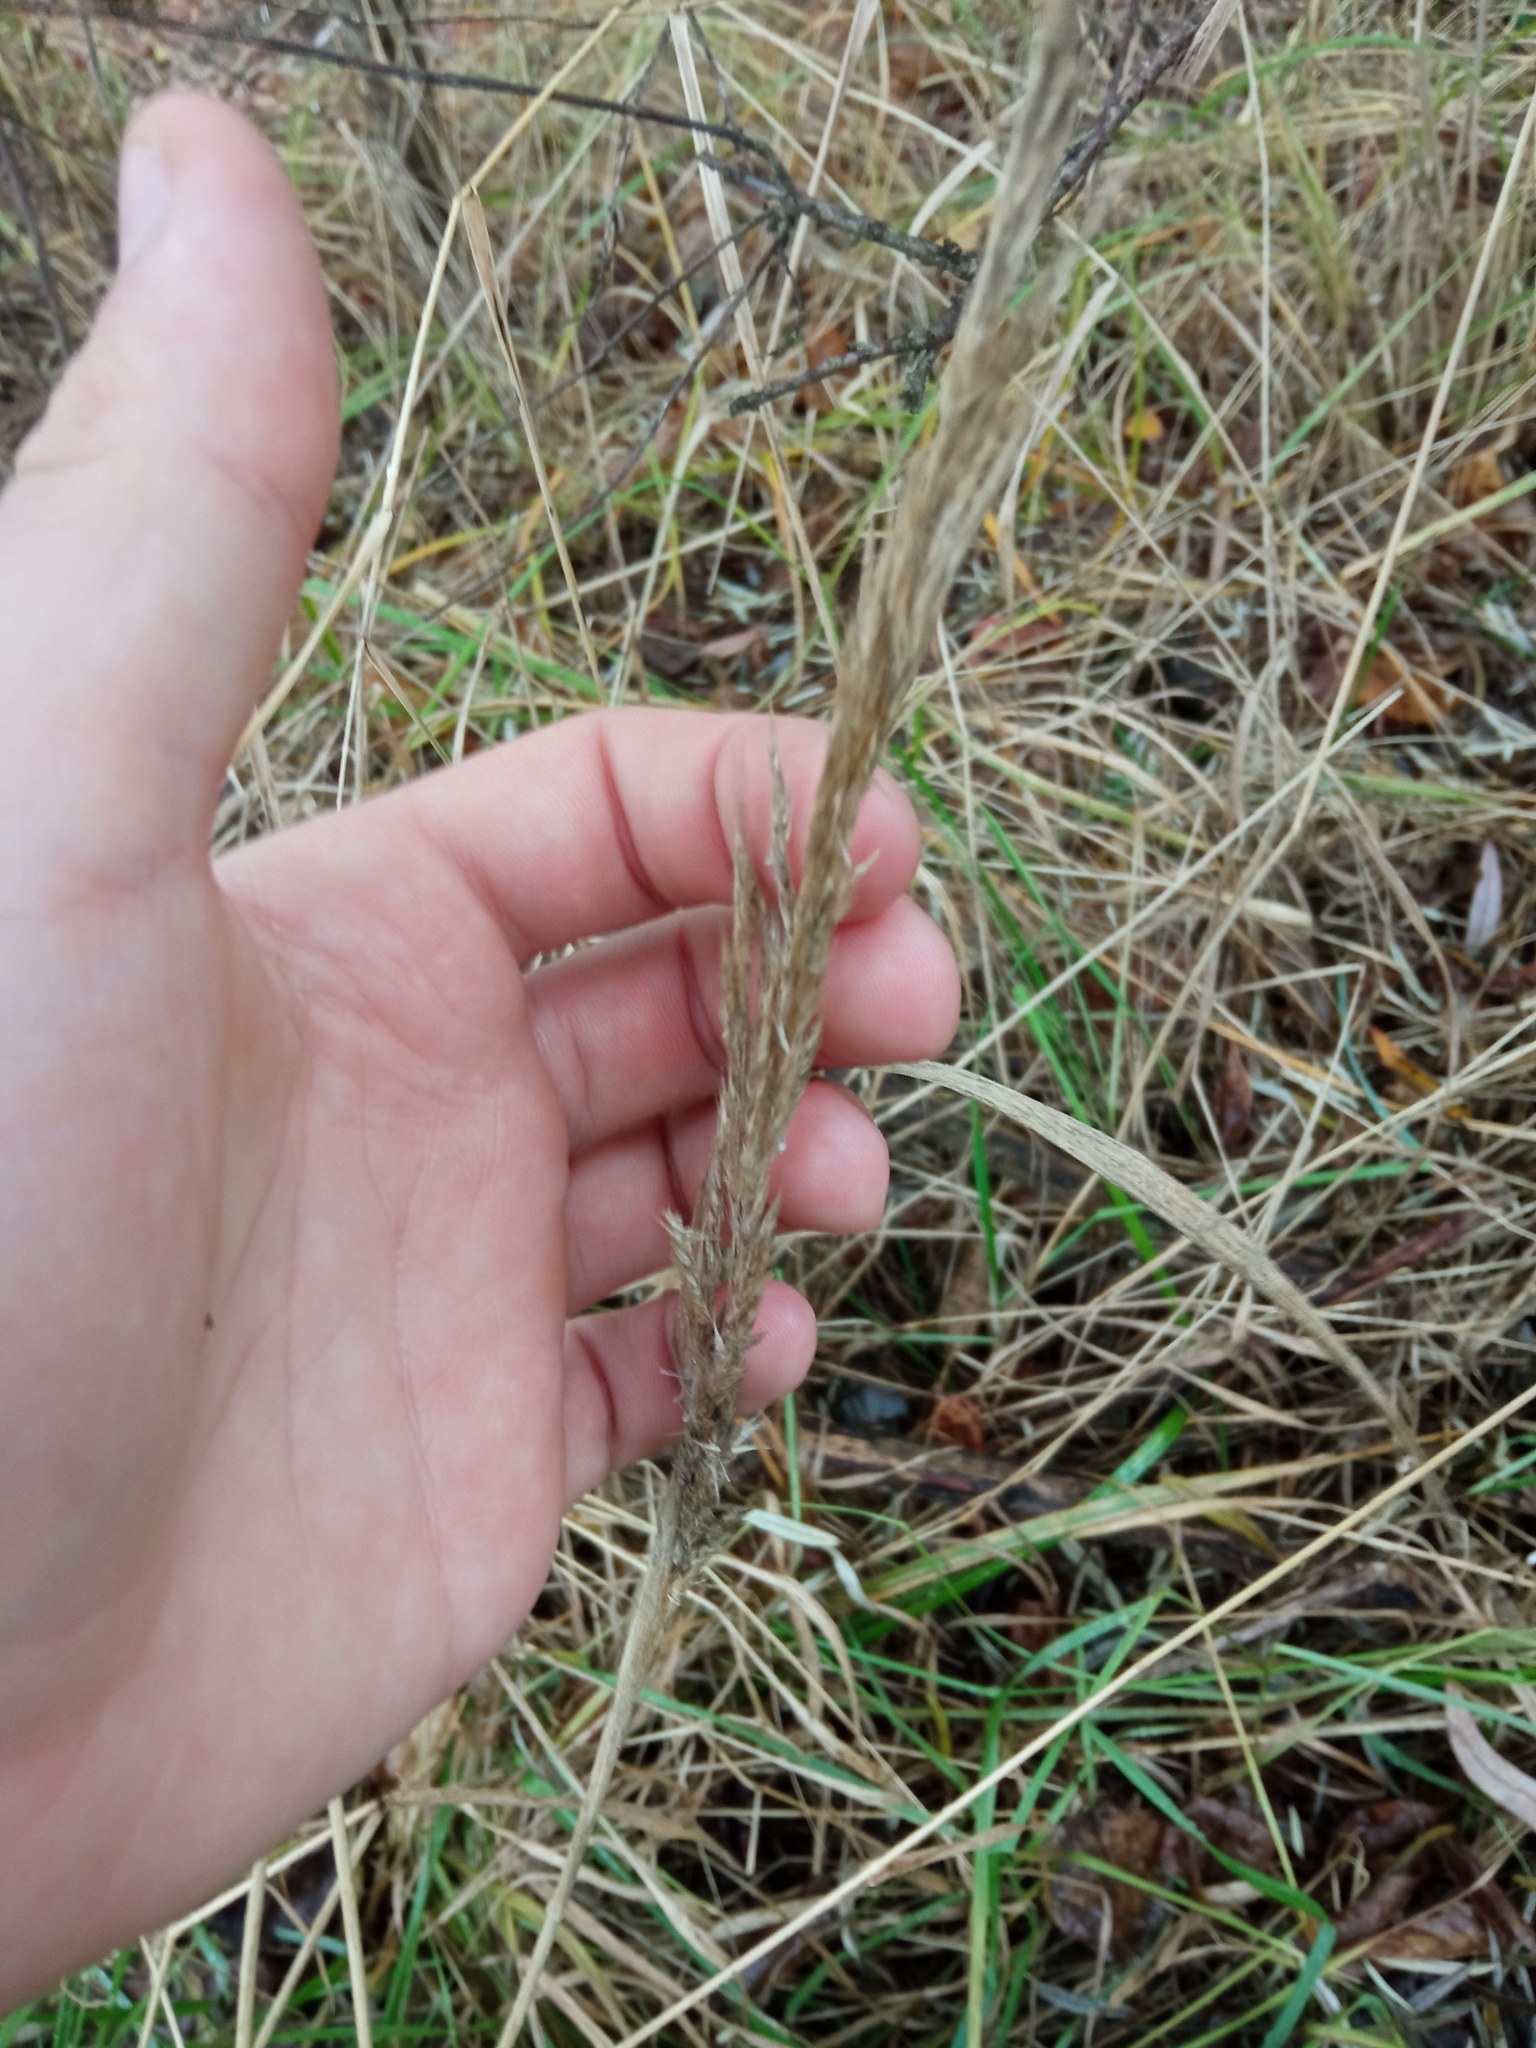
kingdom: Plantae
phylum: Tracheophyta
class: Liliopsida
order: Poales
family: Poaceae
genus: Calamagrostis
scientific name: Calamagrostis epigejos
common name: Wood small-reed
